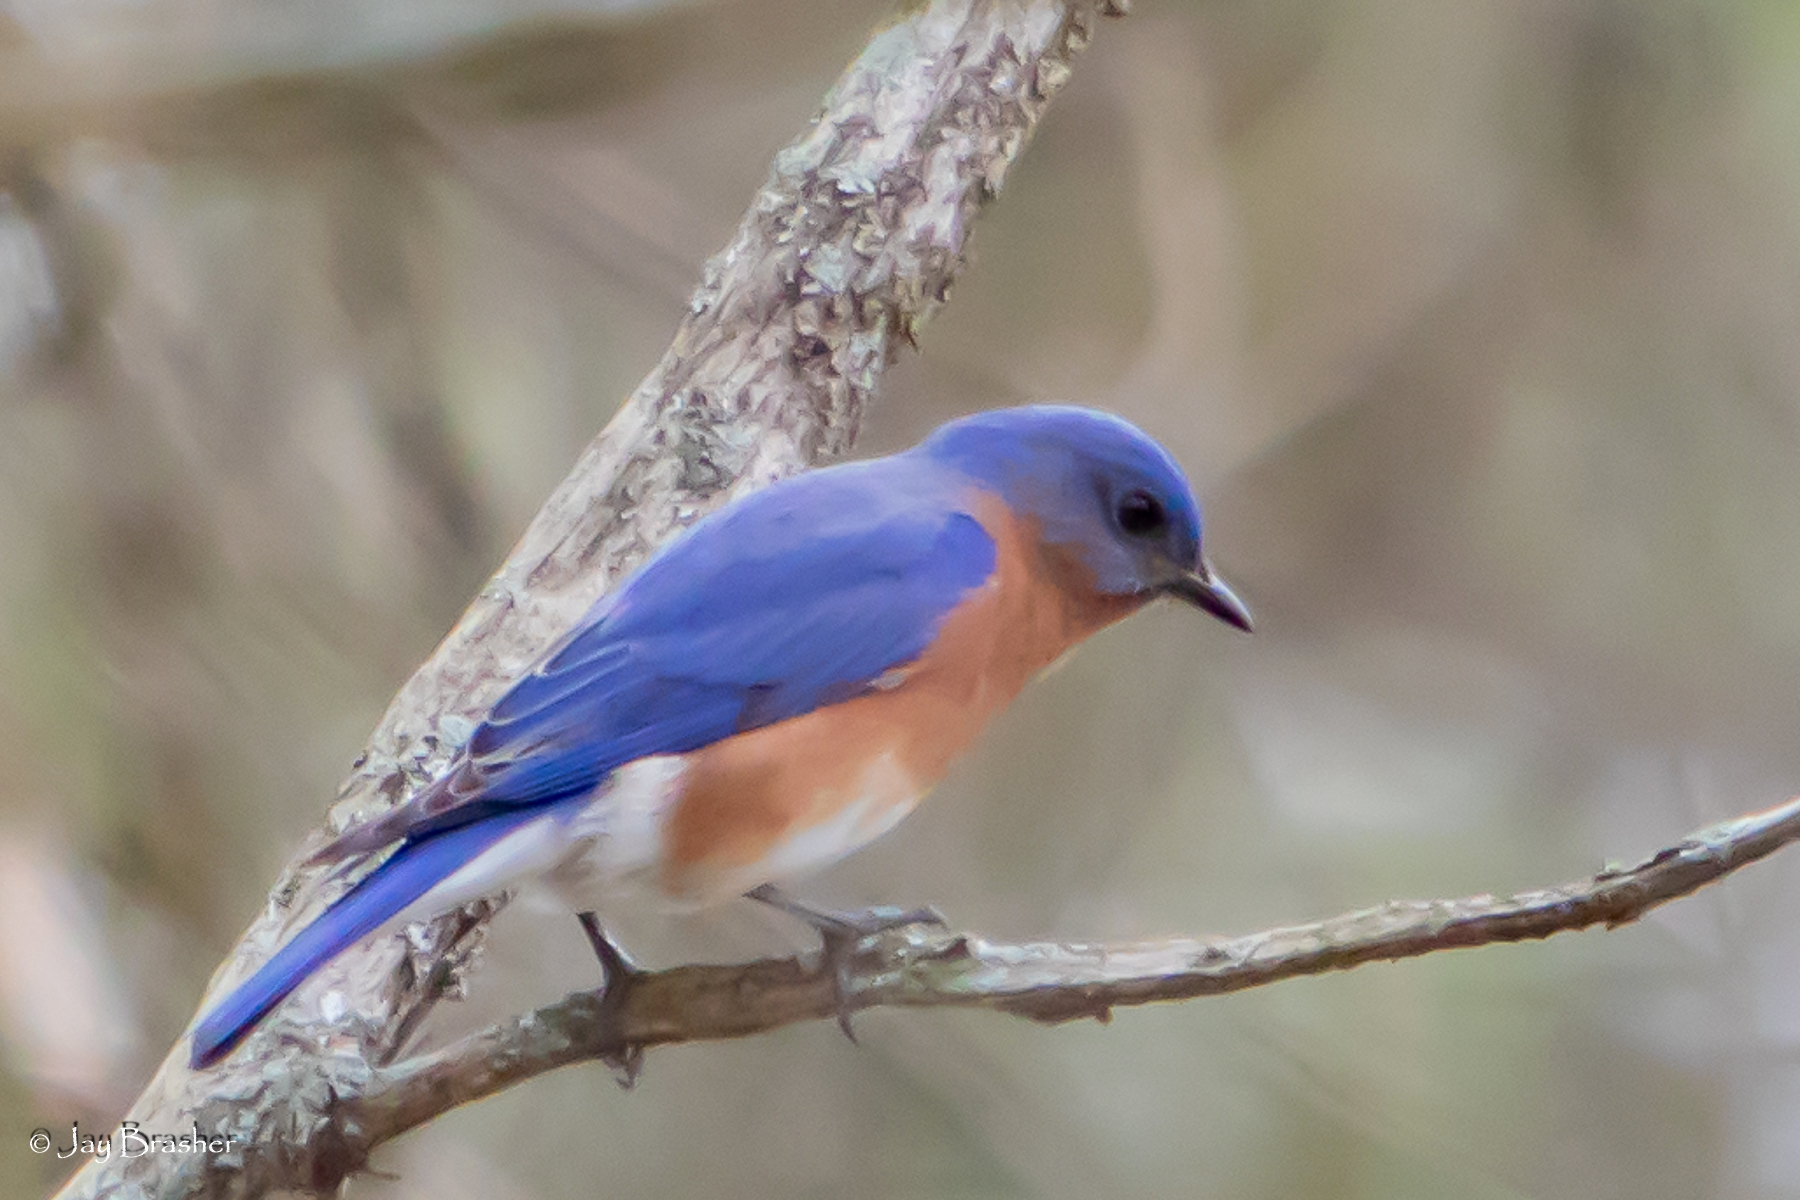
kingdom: Animalia
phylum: Chordata
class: Aves
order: Passeriformes
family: Turdidae
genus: Sialia
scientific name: Sialia sialis
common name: Eastern bluebird
